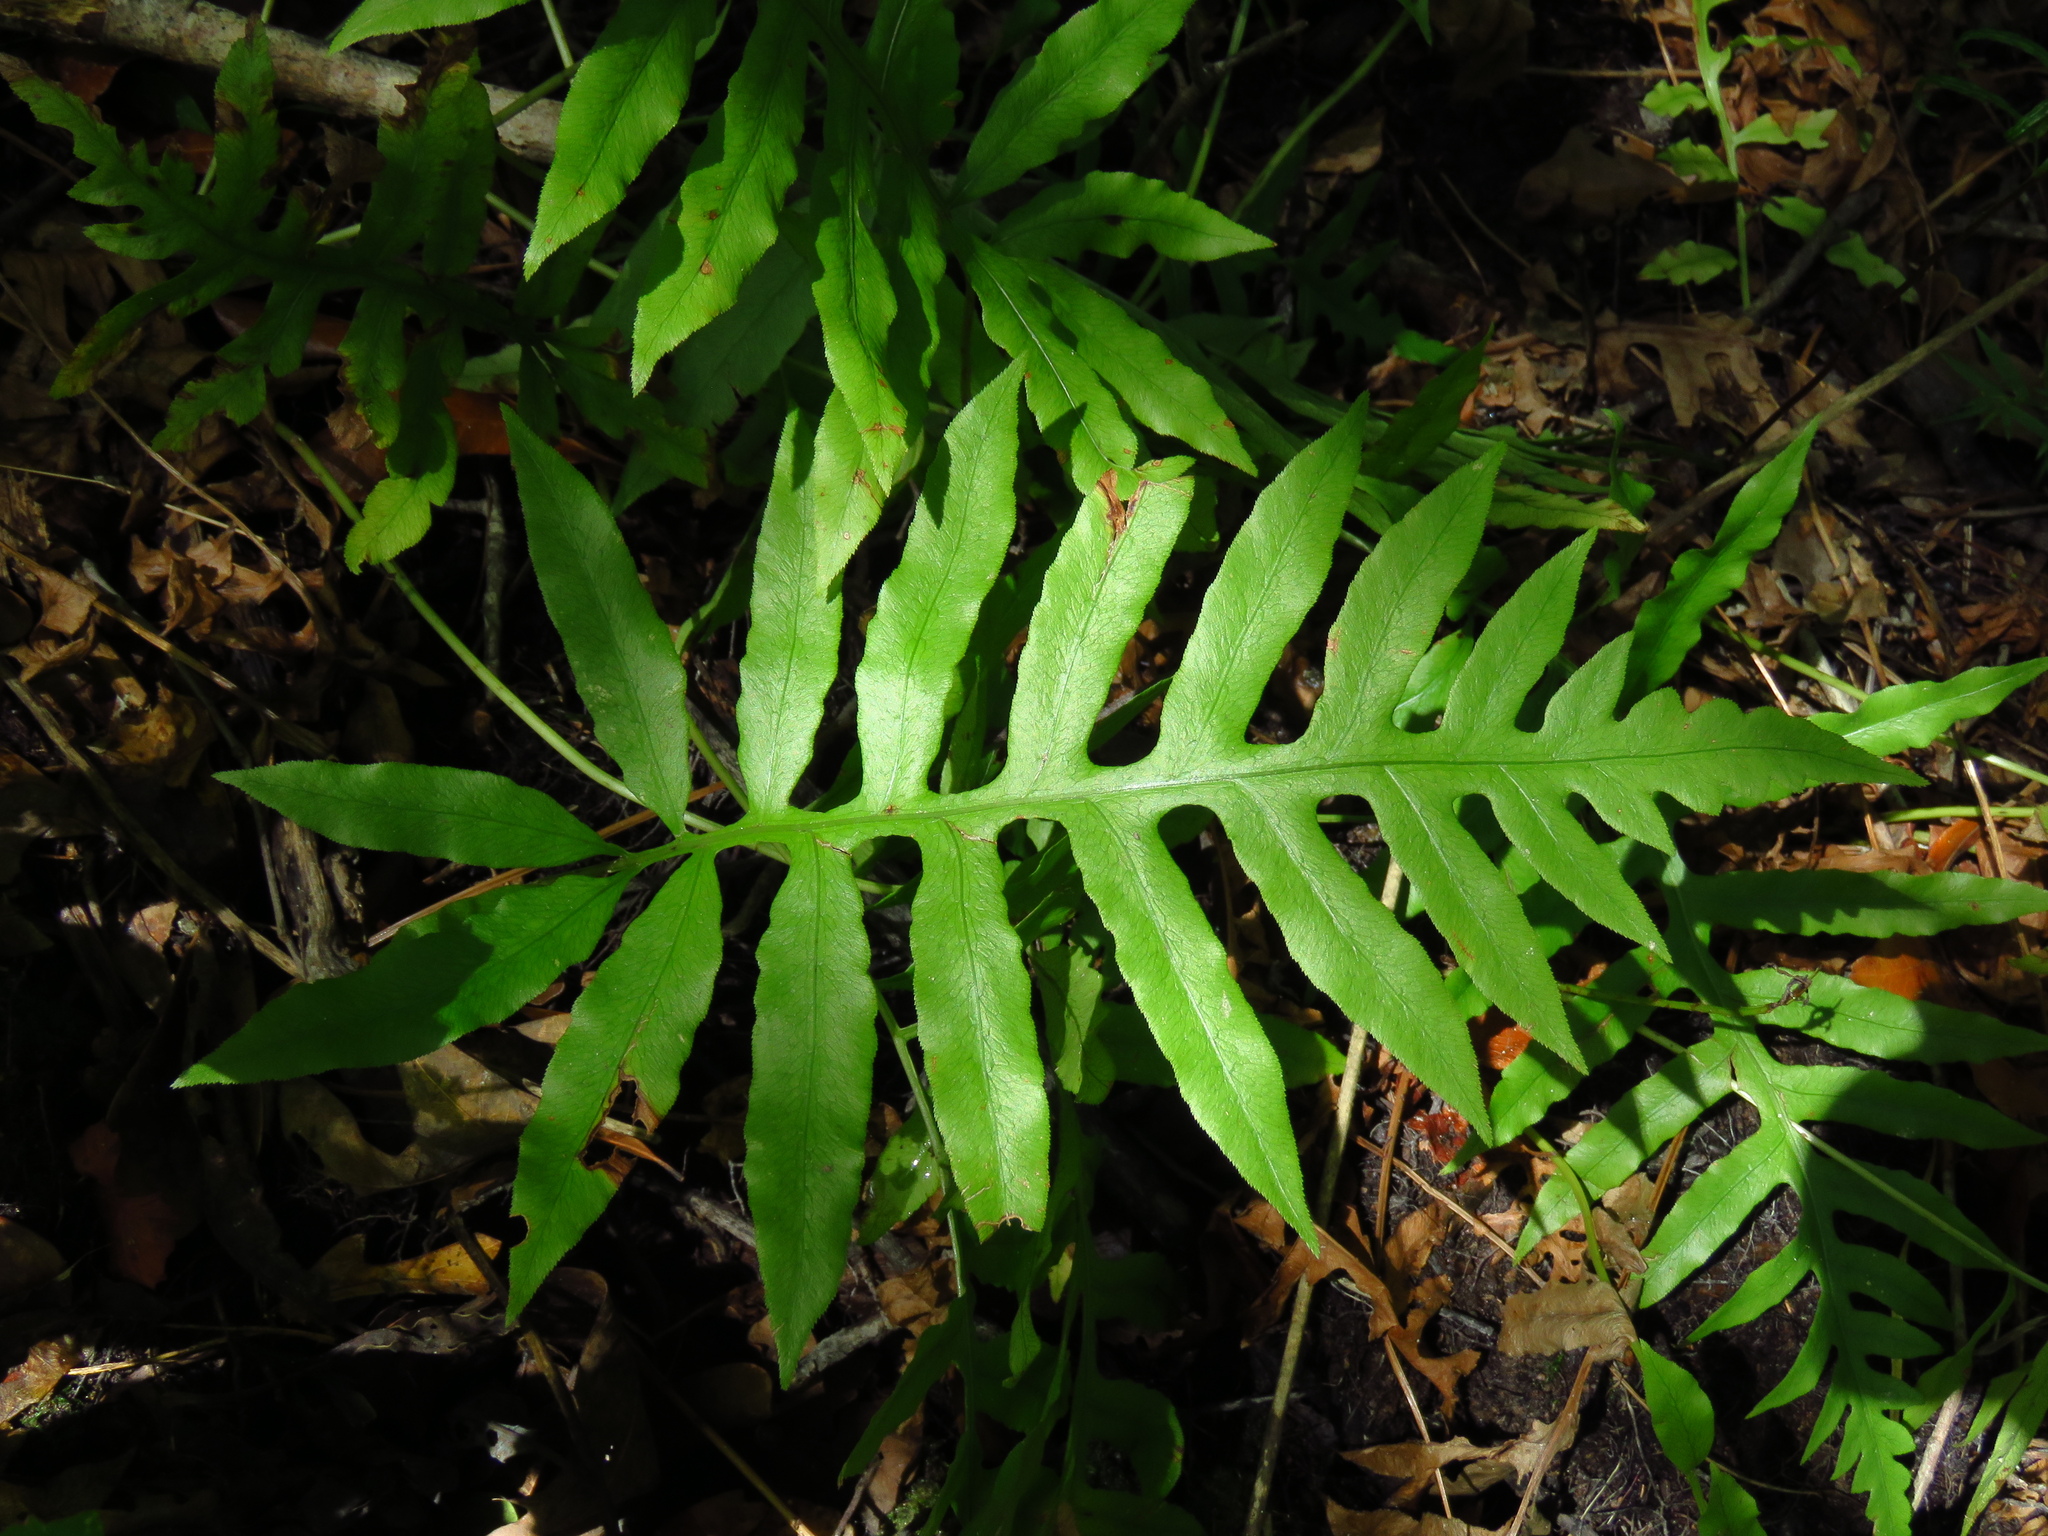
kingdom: Plantae
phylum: Tracheophyta
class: Polypodiopsida
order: Polypodiales
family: Blechnaceae
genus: Lorinseria
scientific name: Lorinseria areolata
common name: Dwarf chain fern
